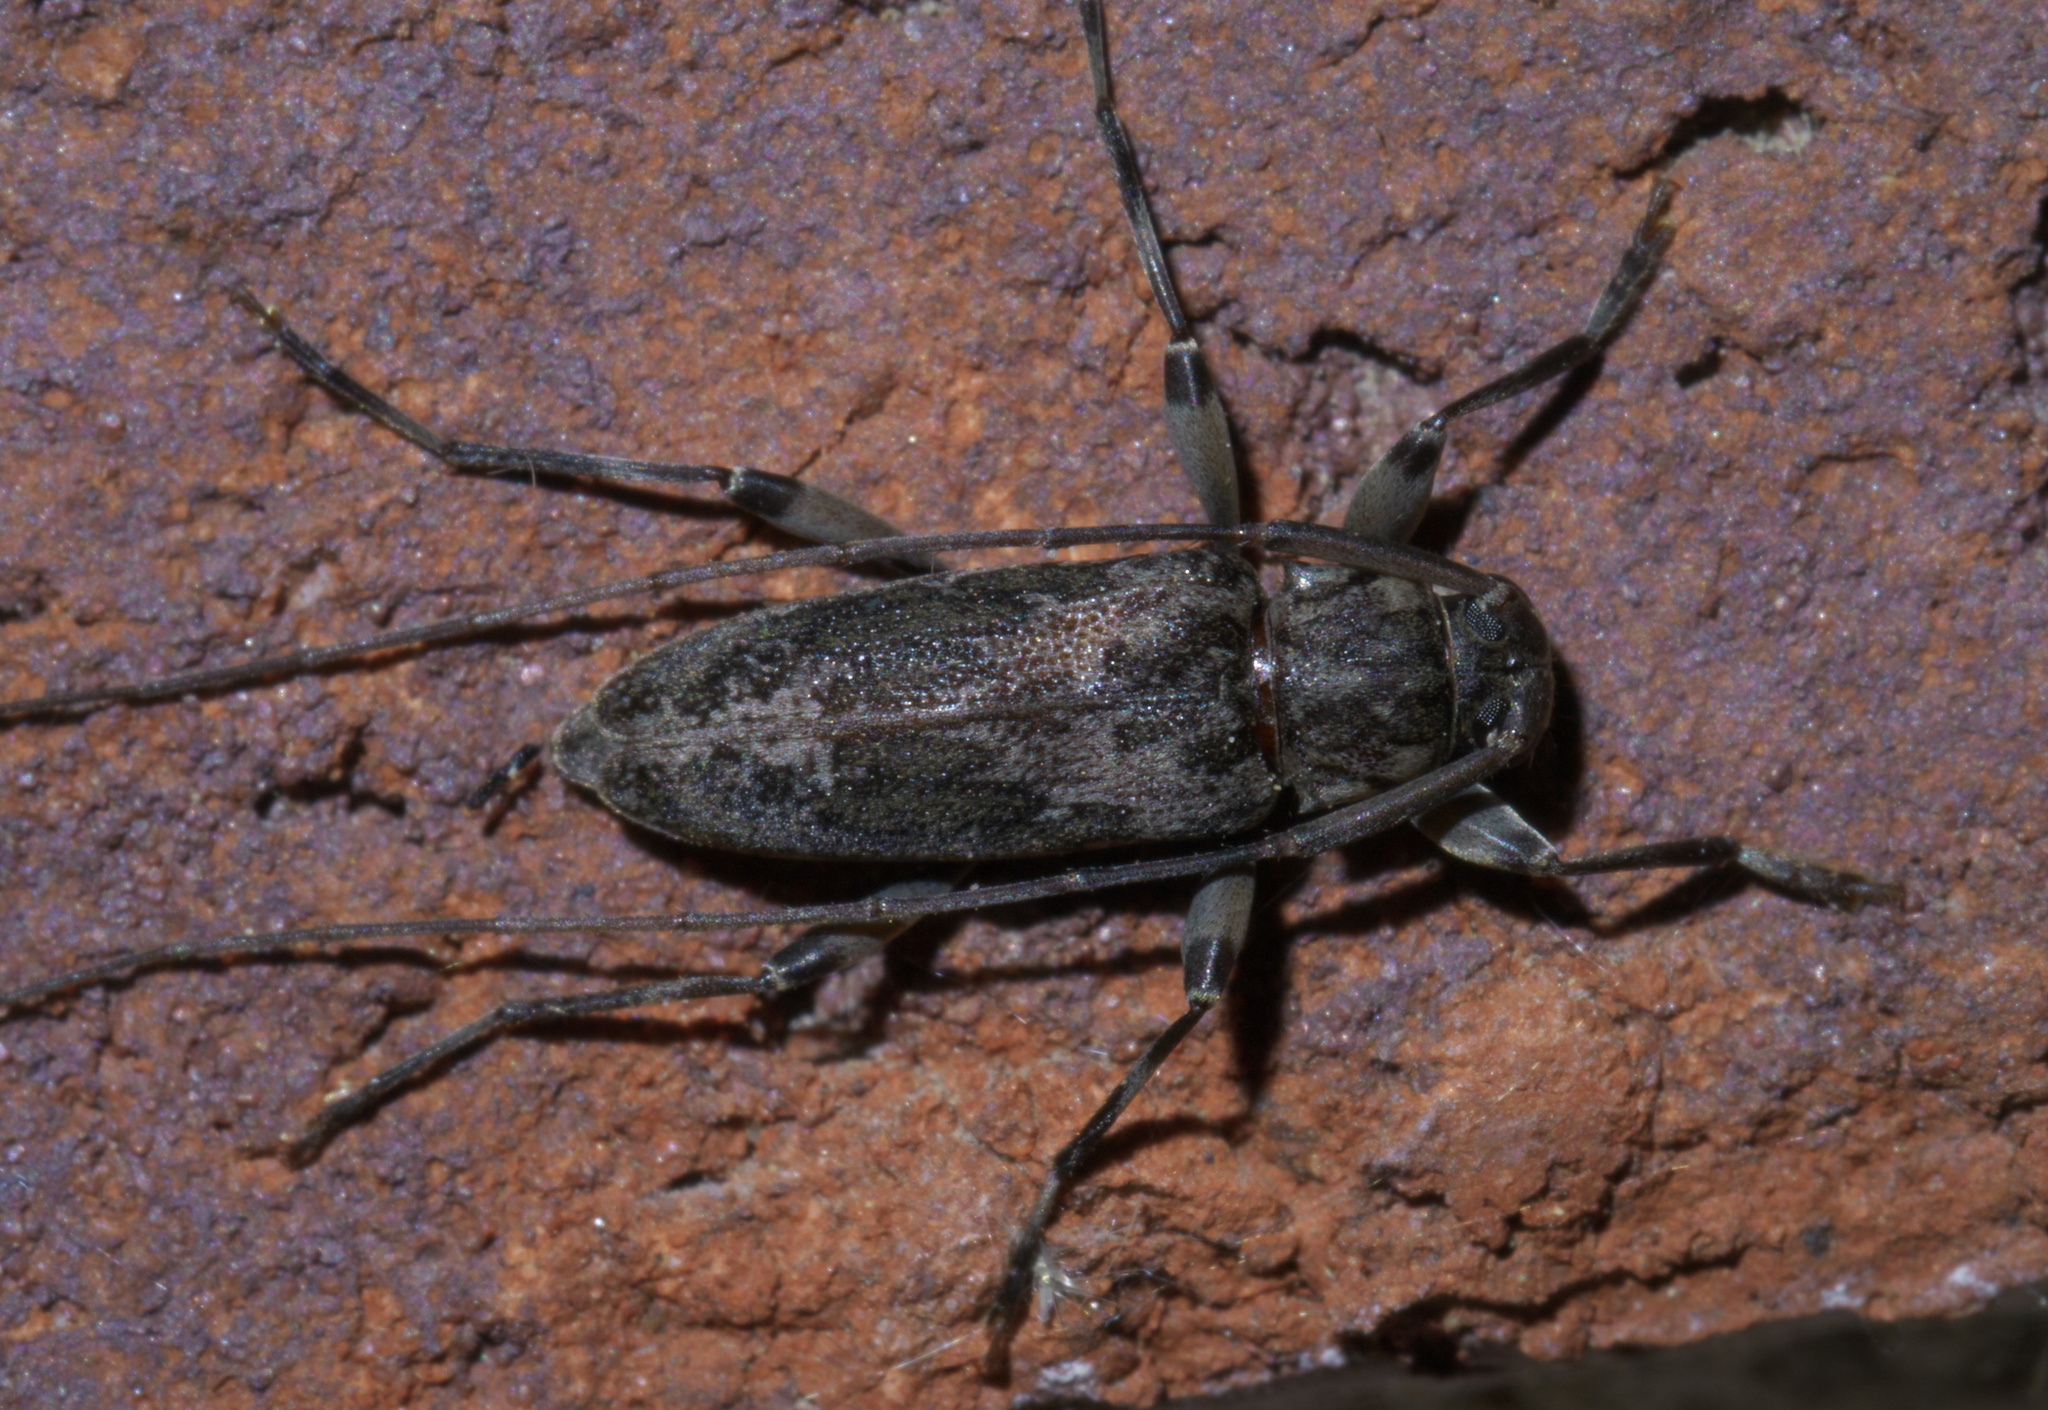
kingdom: Animalia
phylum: Arthropoda
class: Insecta
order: Coleoptera
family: Cerambycidae
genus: Lepturges
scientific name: Lepturges confluens
